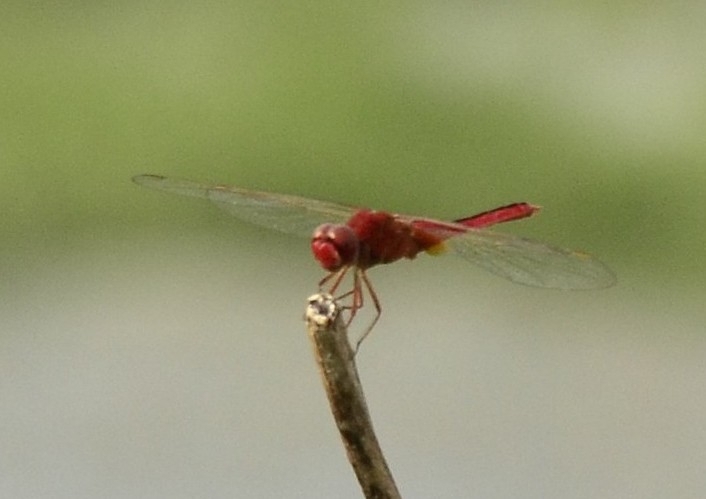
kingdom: Animalia
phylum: Arthropoda
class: Insecta
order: Odonata
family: Libellulidae
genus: Crocothemis
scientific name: Crocothemis servilia
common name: Scarlet skimmer
